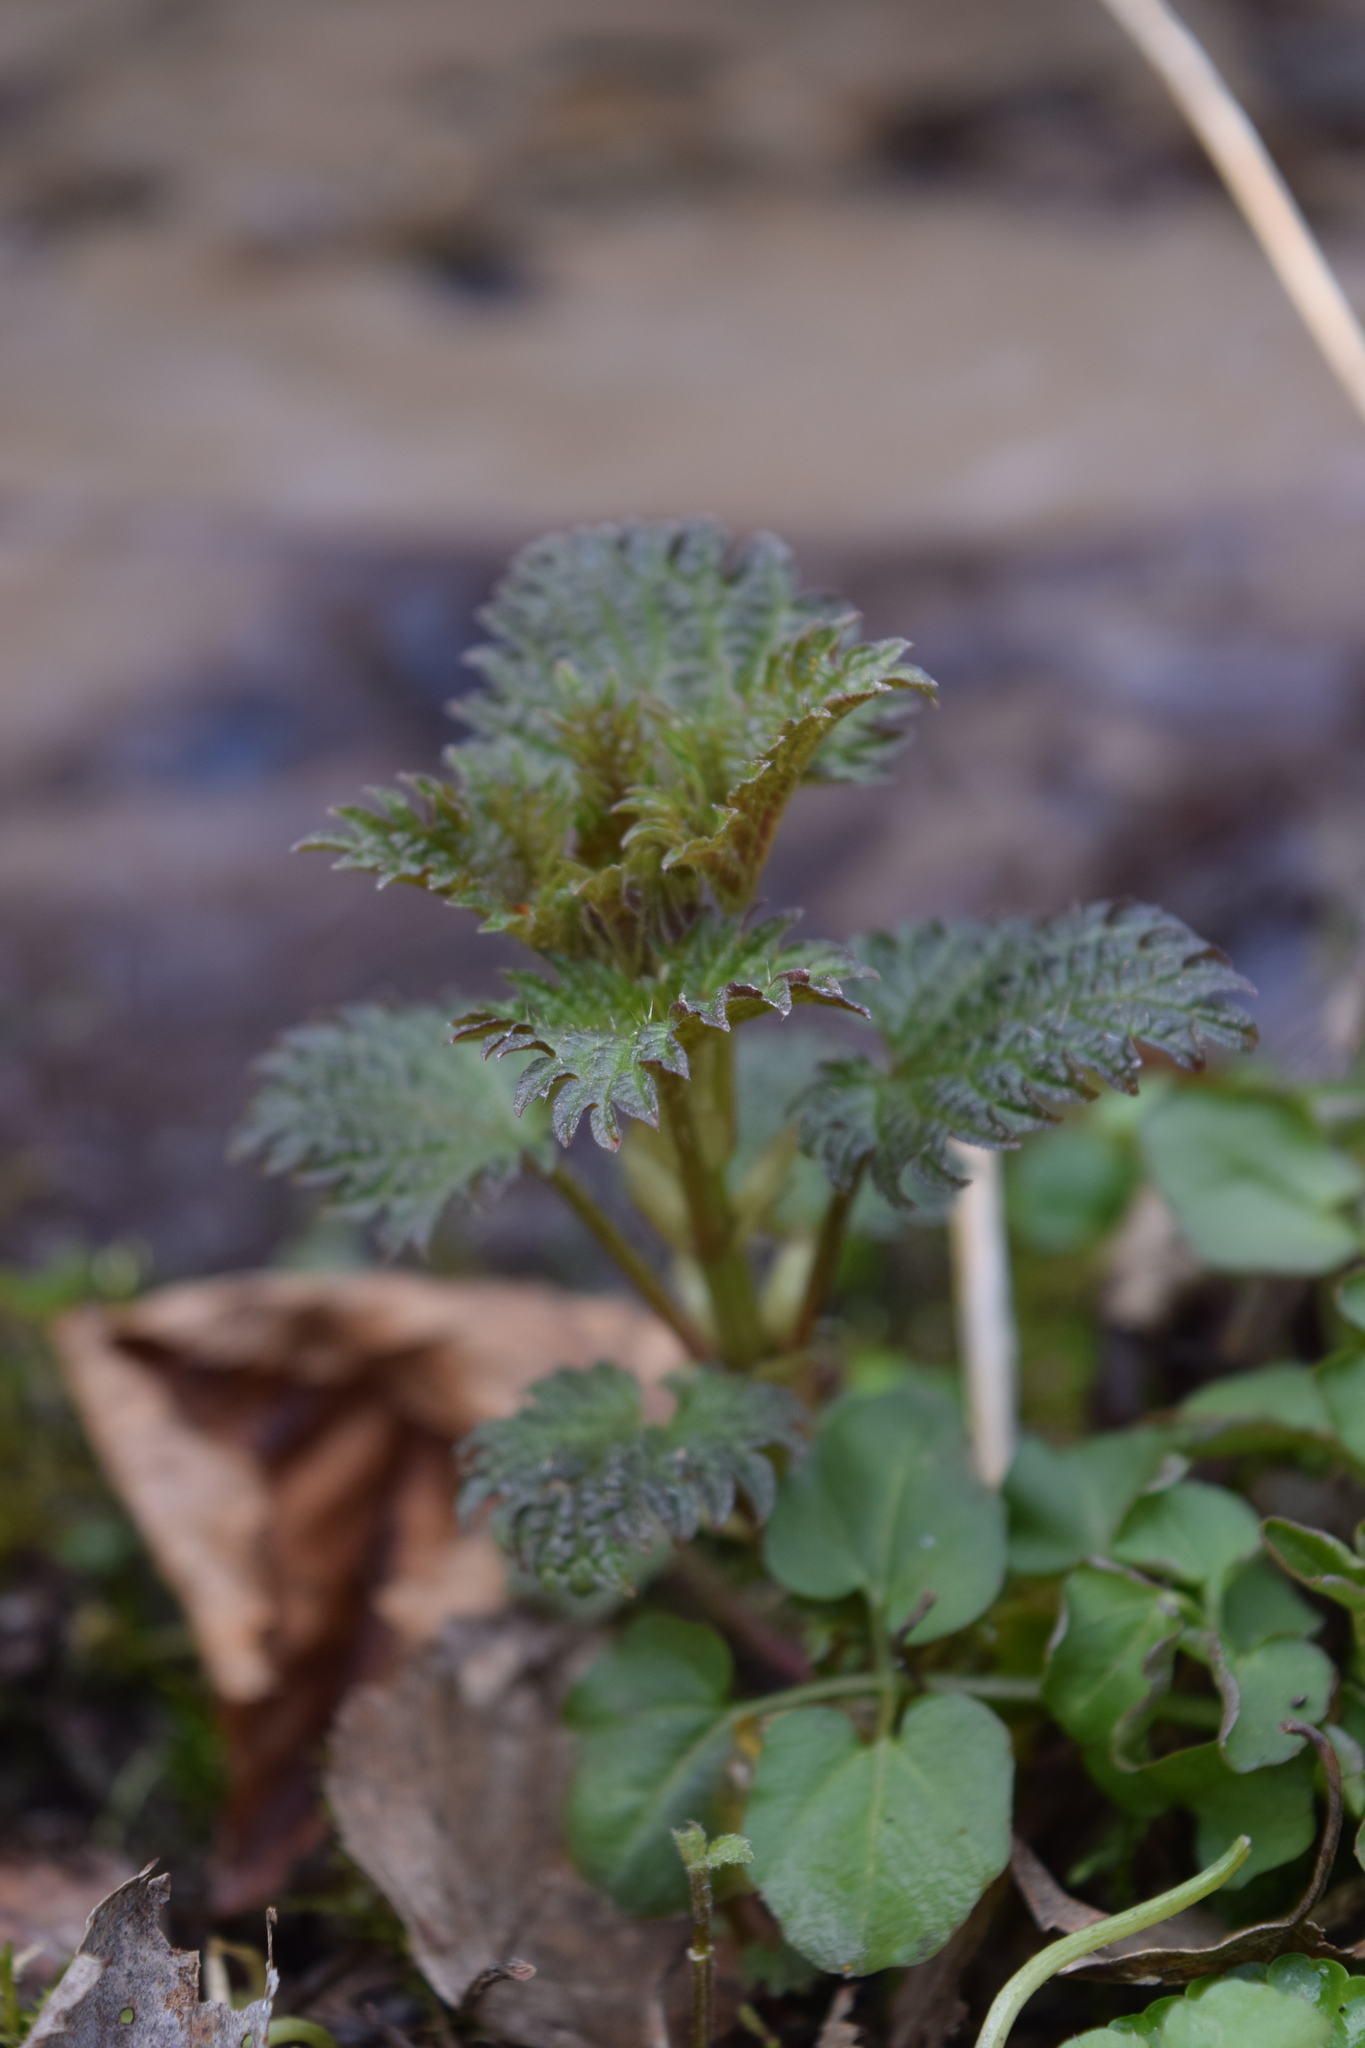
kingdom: Plantae
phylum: Tracheophyta
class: Magnoliopsida
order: Rosales
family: Urticaceae
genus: Urtica
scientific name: Urtica dioica
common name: Common nettle
